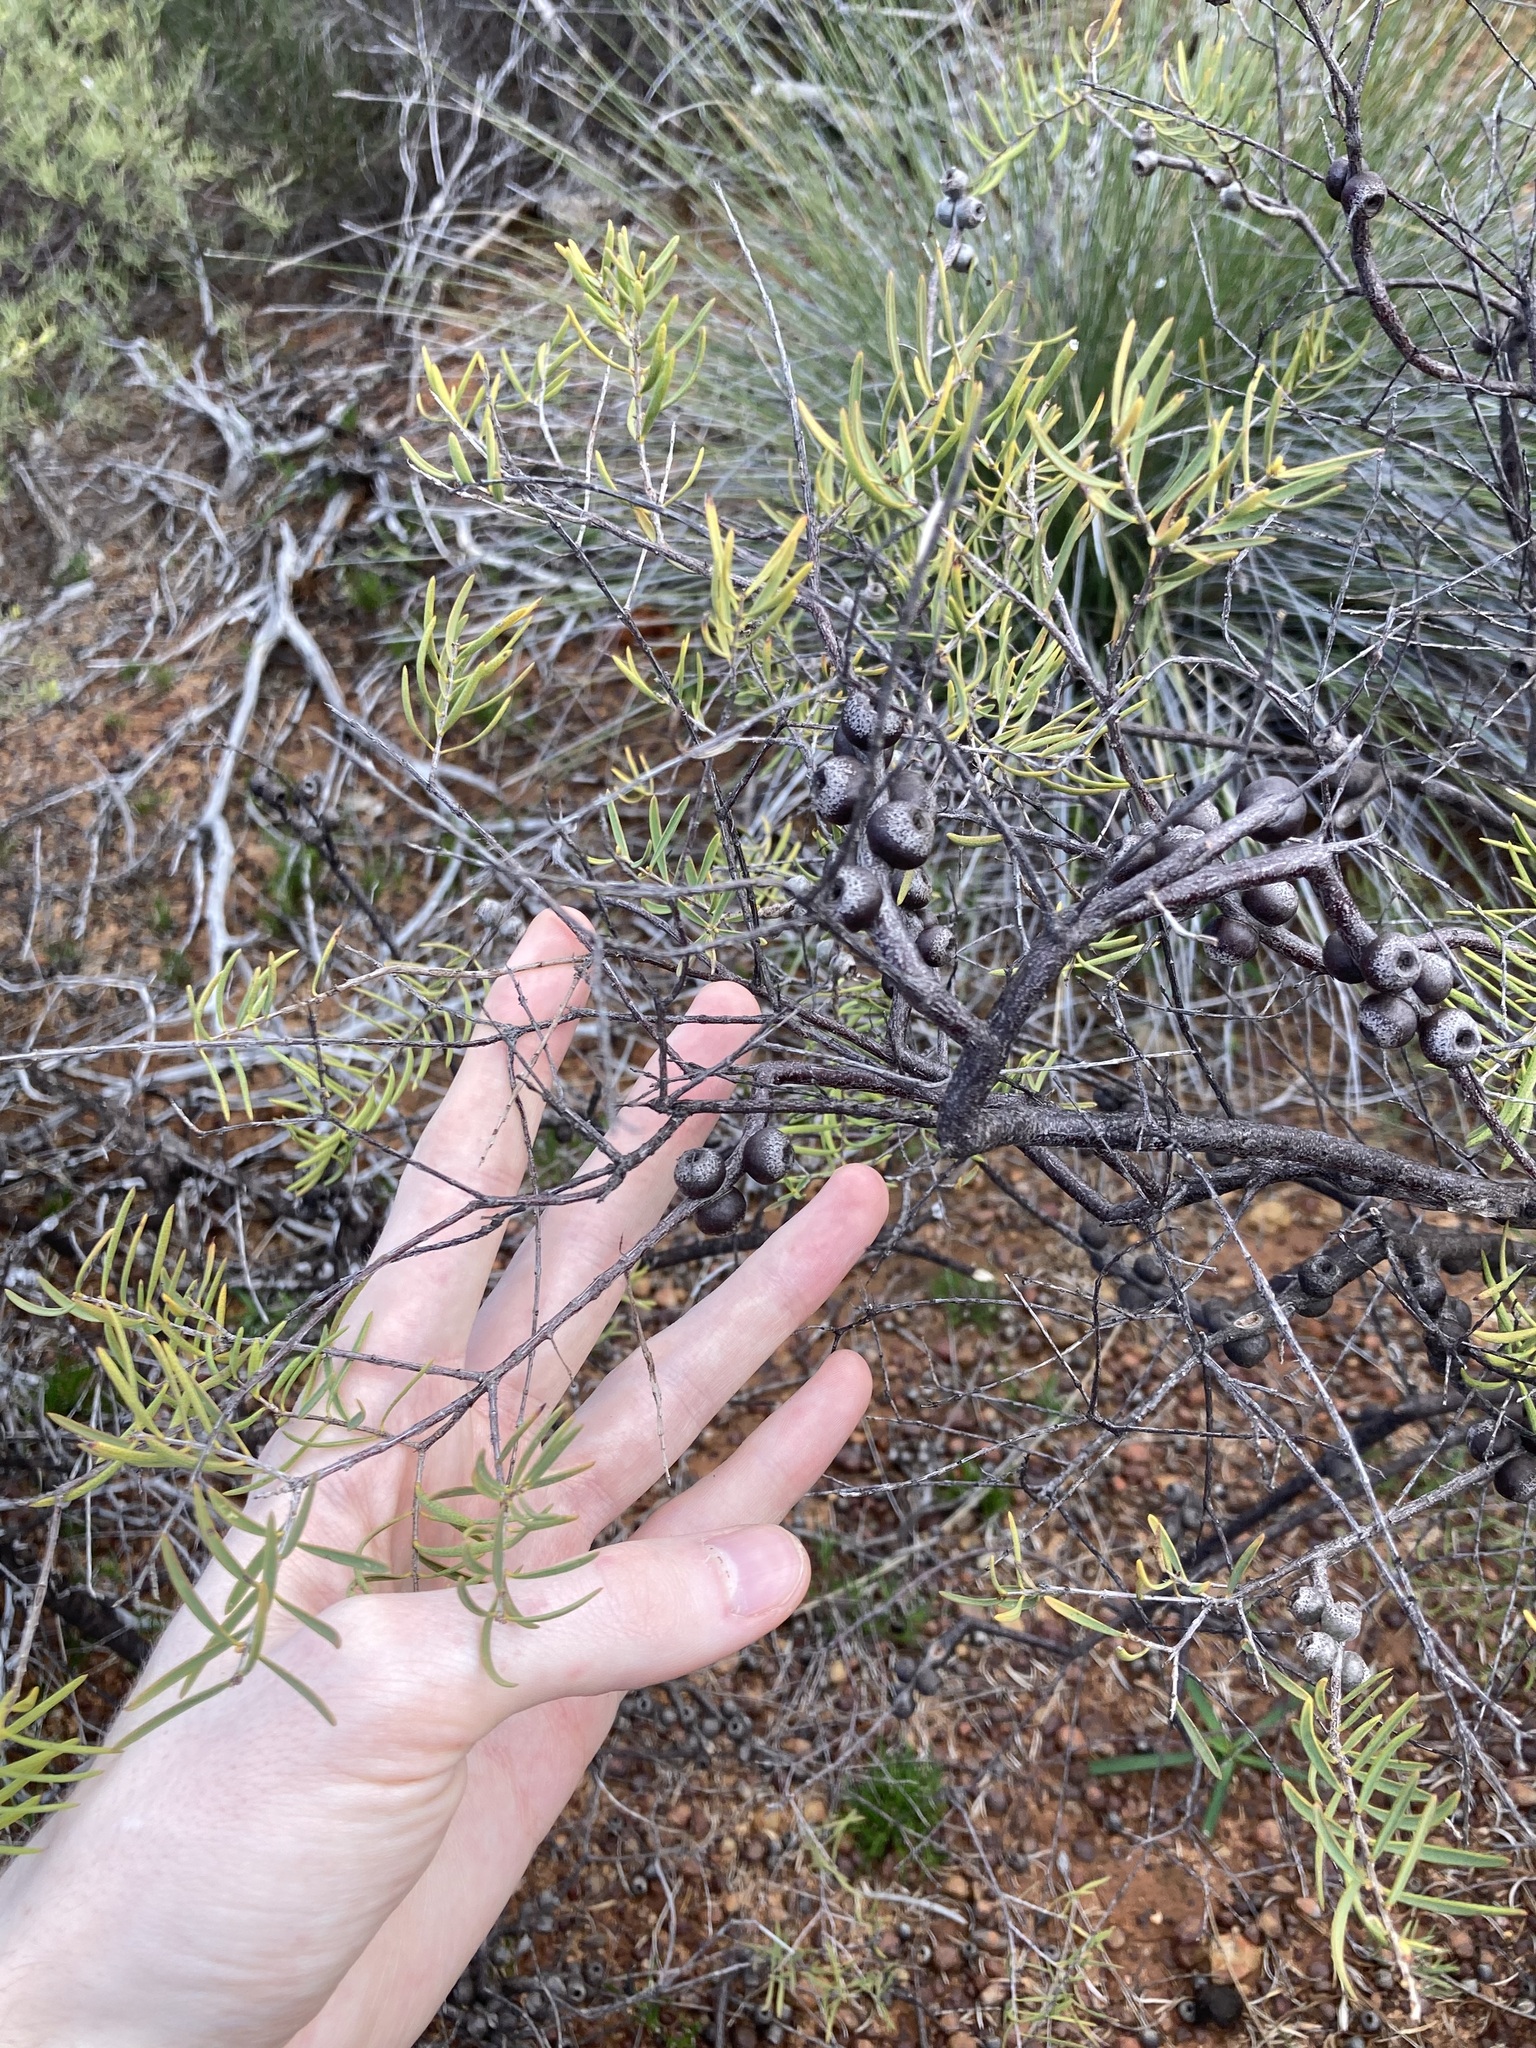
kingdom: Plantae
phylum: Tracheophyta
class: Magnoliopsida
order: Myrtales
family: Myrtaceae
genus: Melaleuca
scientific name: Melaleuca radula
